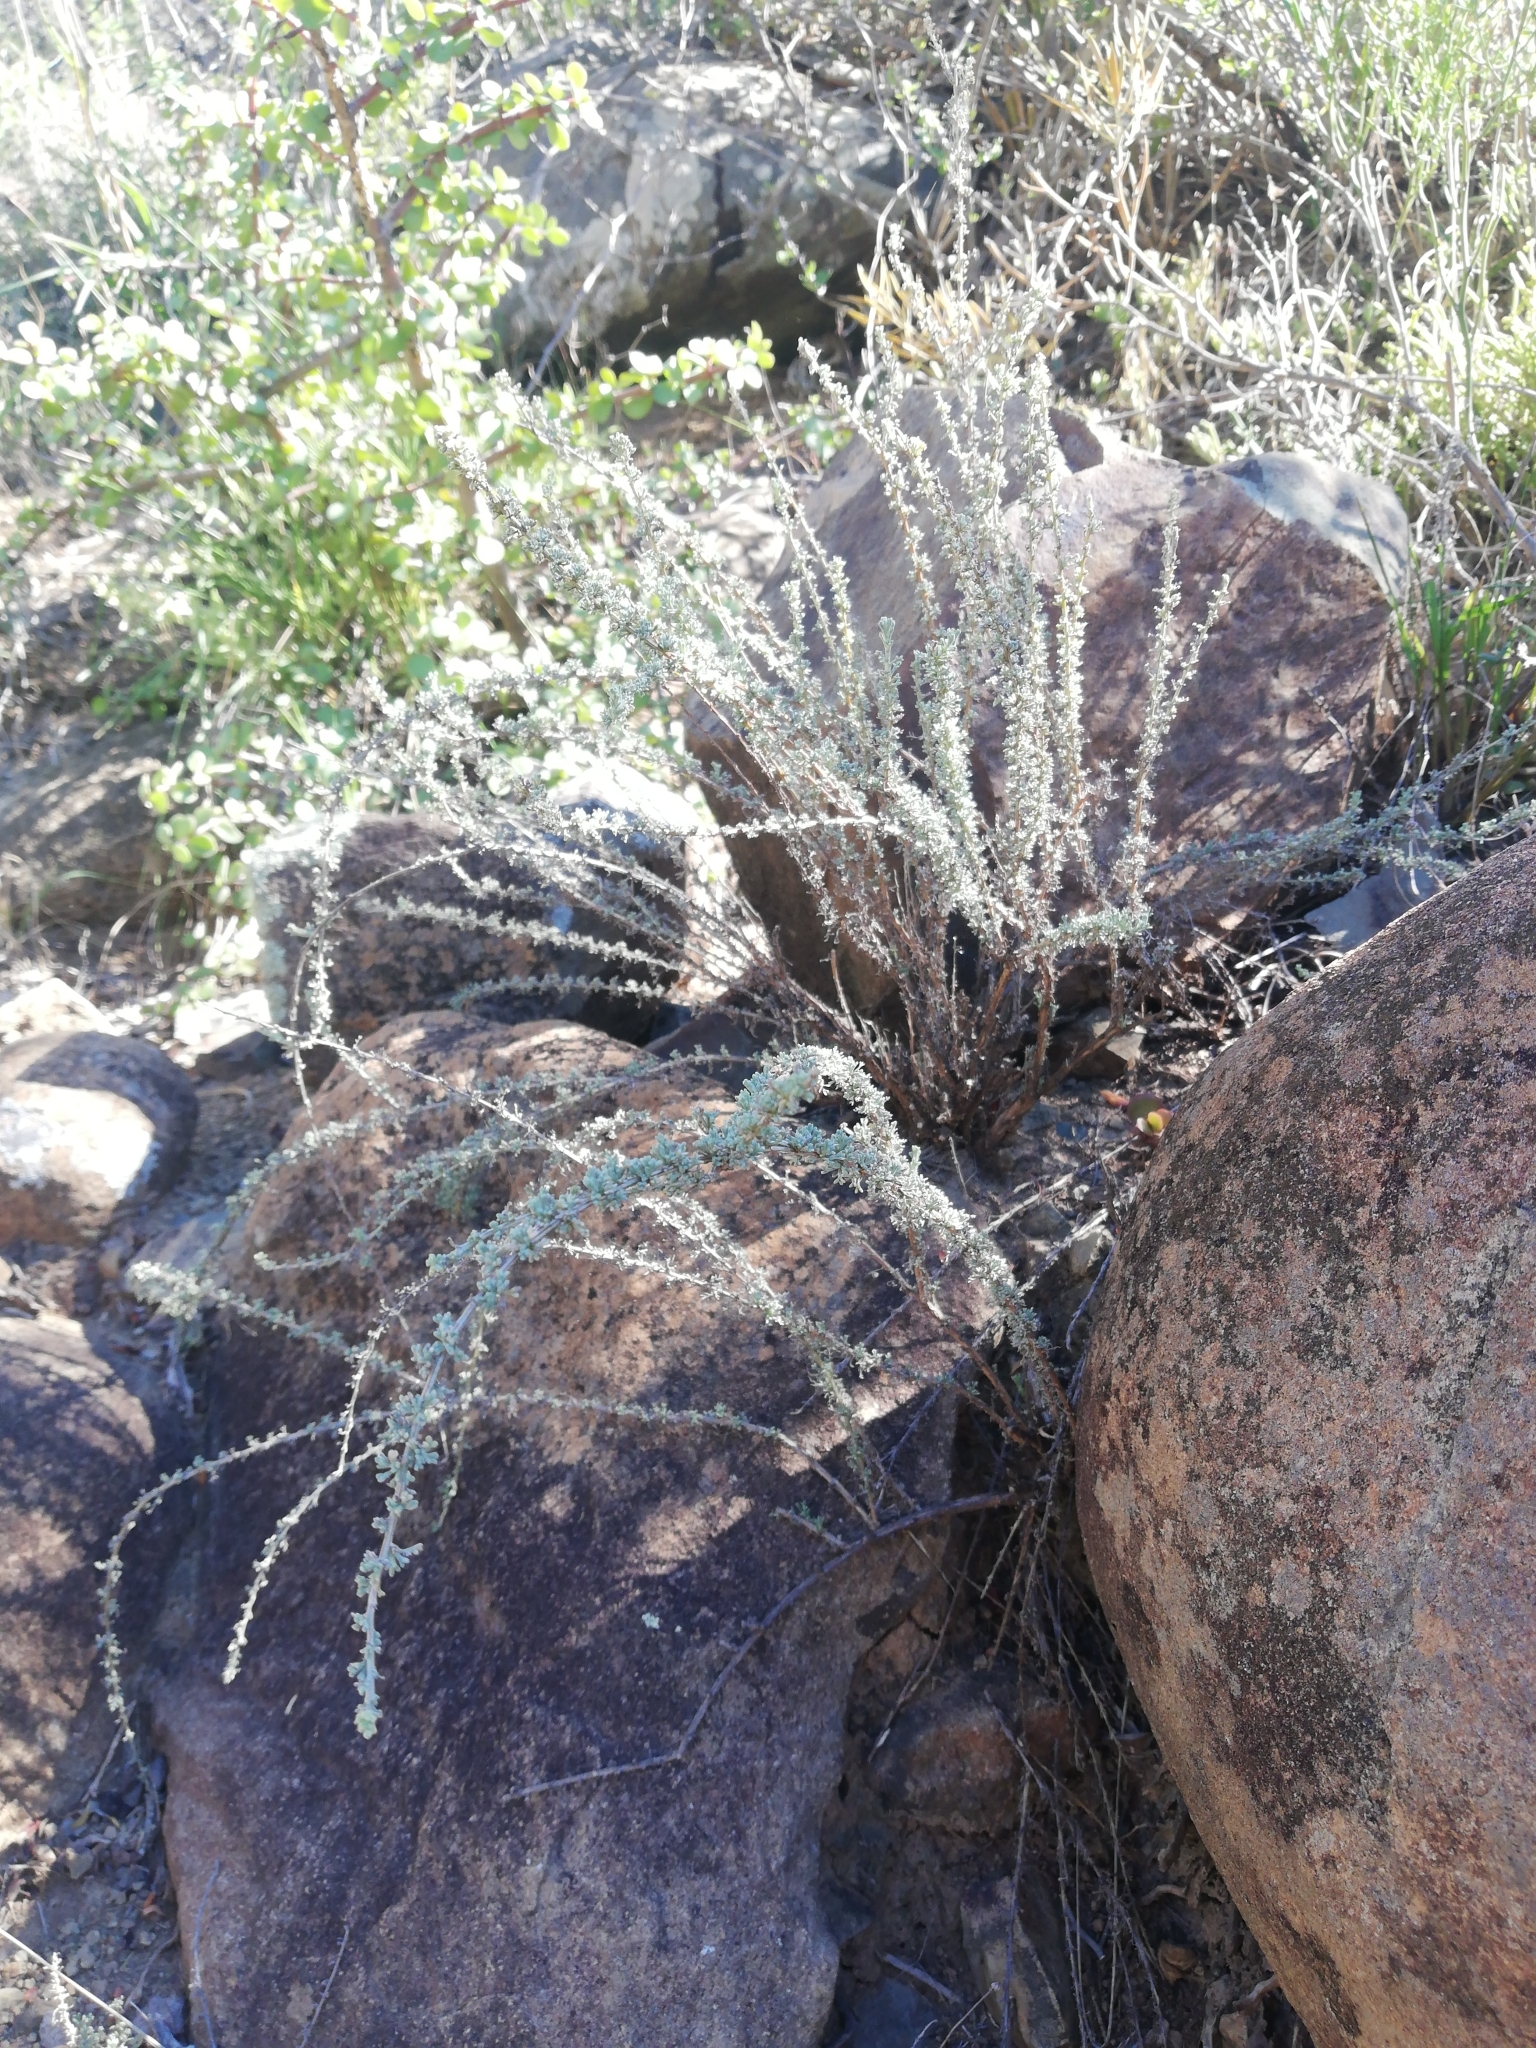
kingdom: Plantae
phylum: Tracheophyta
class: Magnoliopsida
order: Asterales
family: Asteraceae
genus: Pentzia
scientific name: Pentzia incana
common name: African sheepbush
